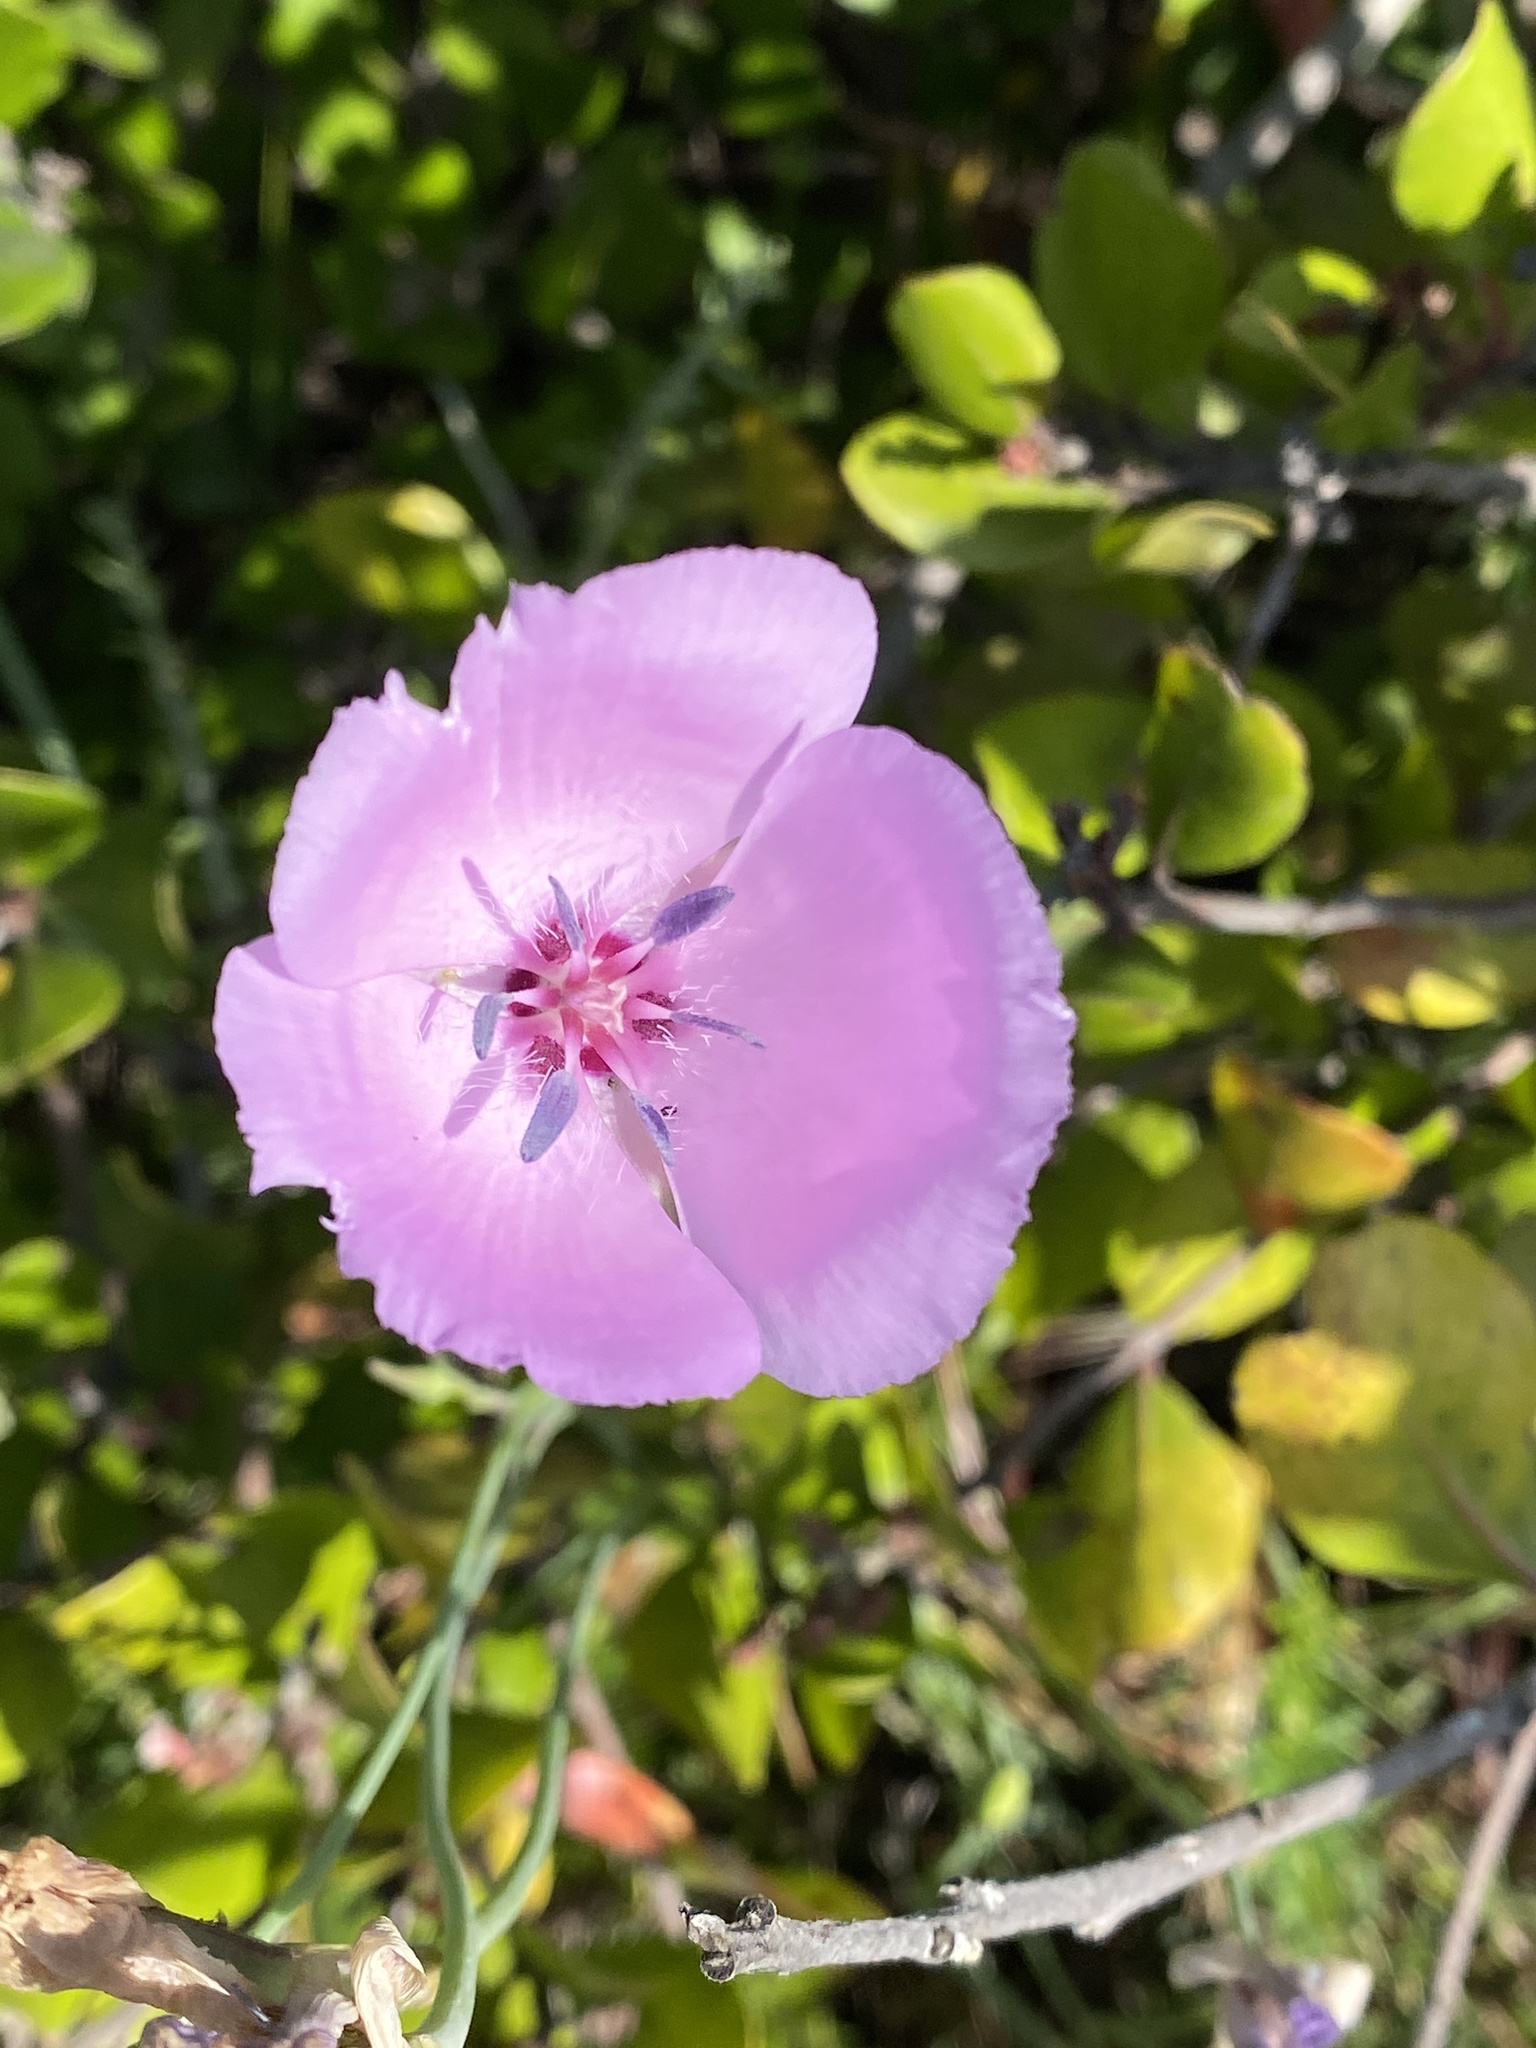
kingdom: Plantae
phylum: Tracheophyta
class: Liliopsida
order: Liliales
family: Liliaceae
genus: Calochortus
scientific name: Calochortus splendens
